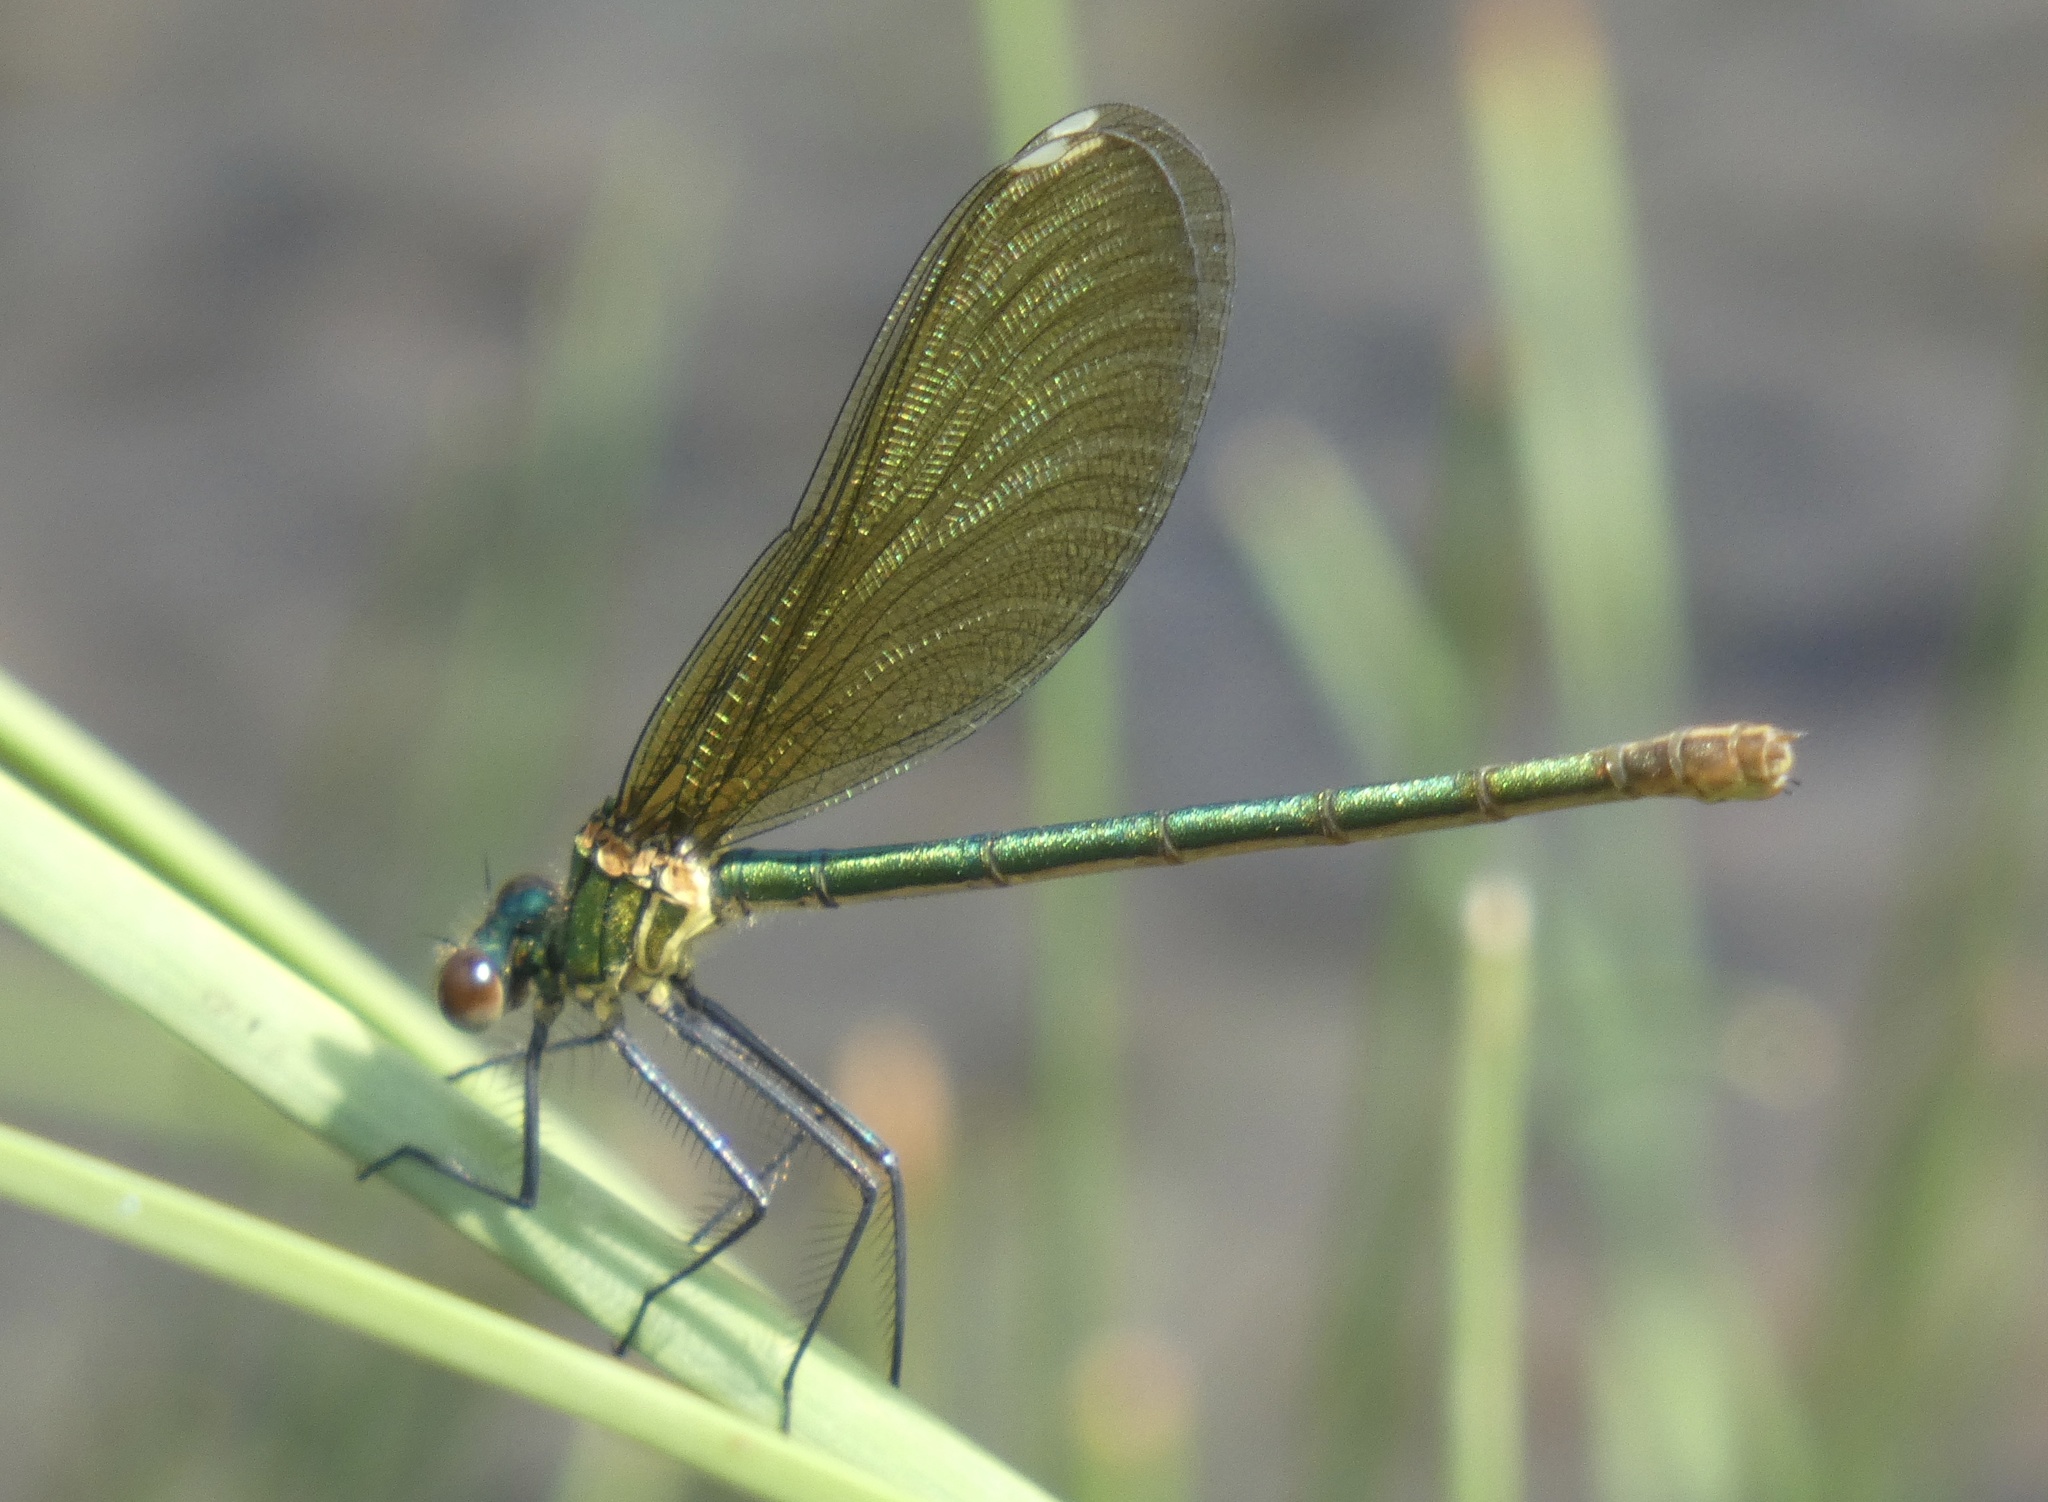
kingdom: Animalia
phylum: Arthropoda
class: Insecta
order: Odonata
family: Calopterygidae
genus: Calopteryx
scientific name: Calopteryx xanthostoma
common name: Western demoiselle
